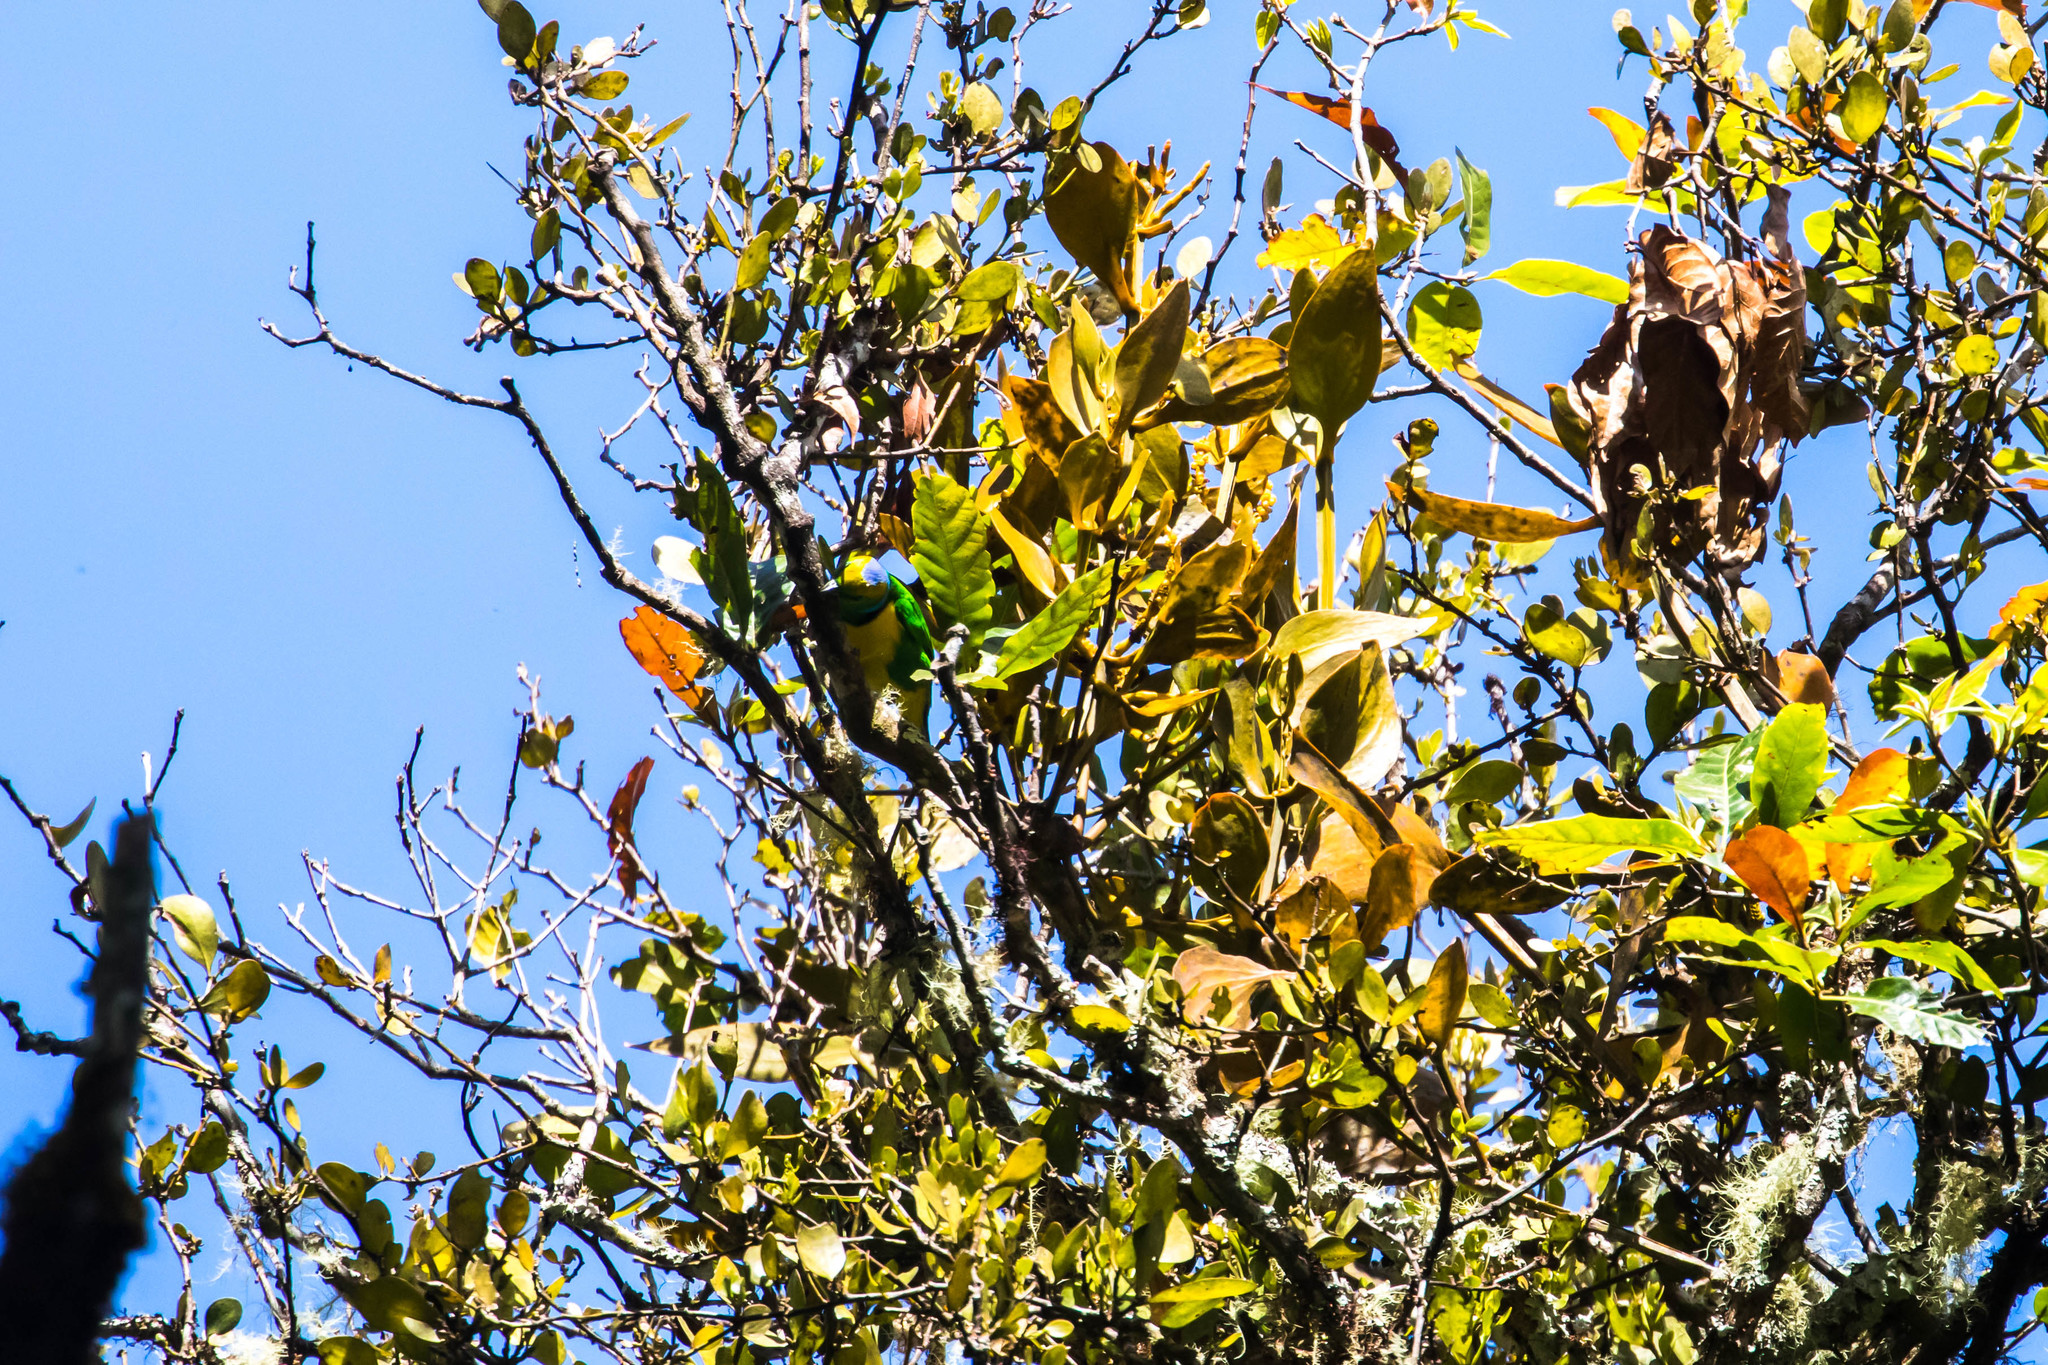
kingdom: Animalia
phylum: Chordata
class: Aves
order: Passeriformes
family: Fringillidae
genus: Chlorophonia
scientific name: Chlorophonia callophrys
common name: Golden-browed chlorophonia
